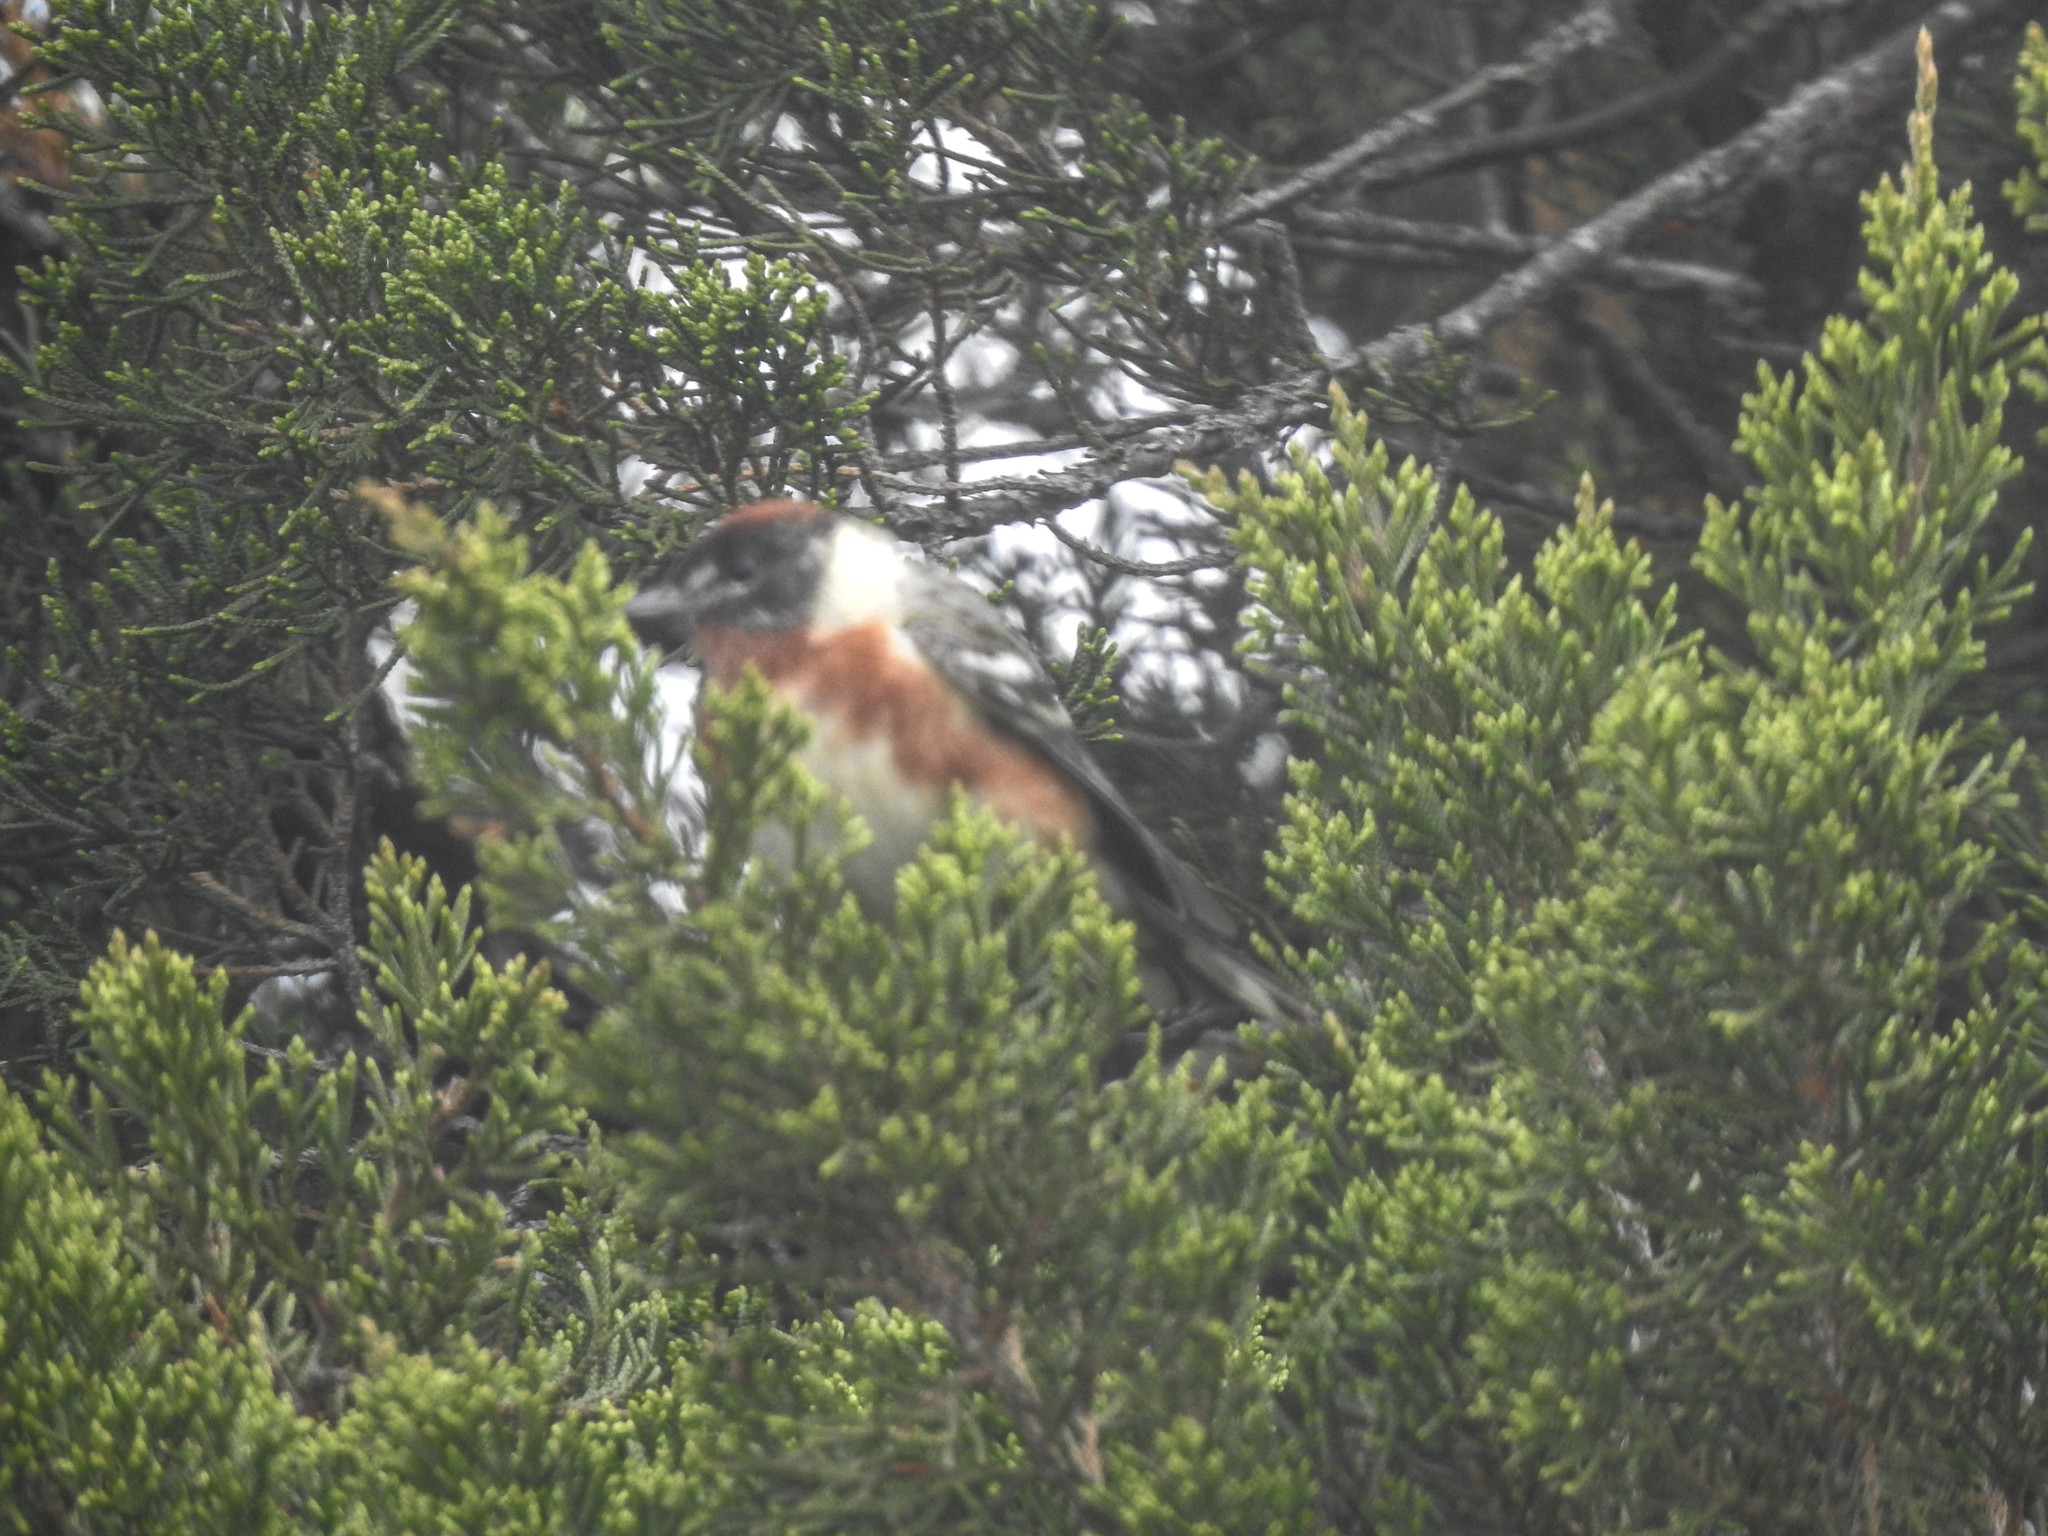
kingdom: Animalia
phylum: Chordata
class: Aves
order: Passeriformes
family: Parulidae
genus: Setophaga
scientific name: Setophaga castanea
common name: Bay-breasted warbler
